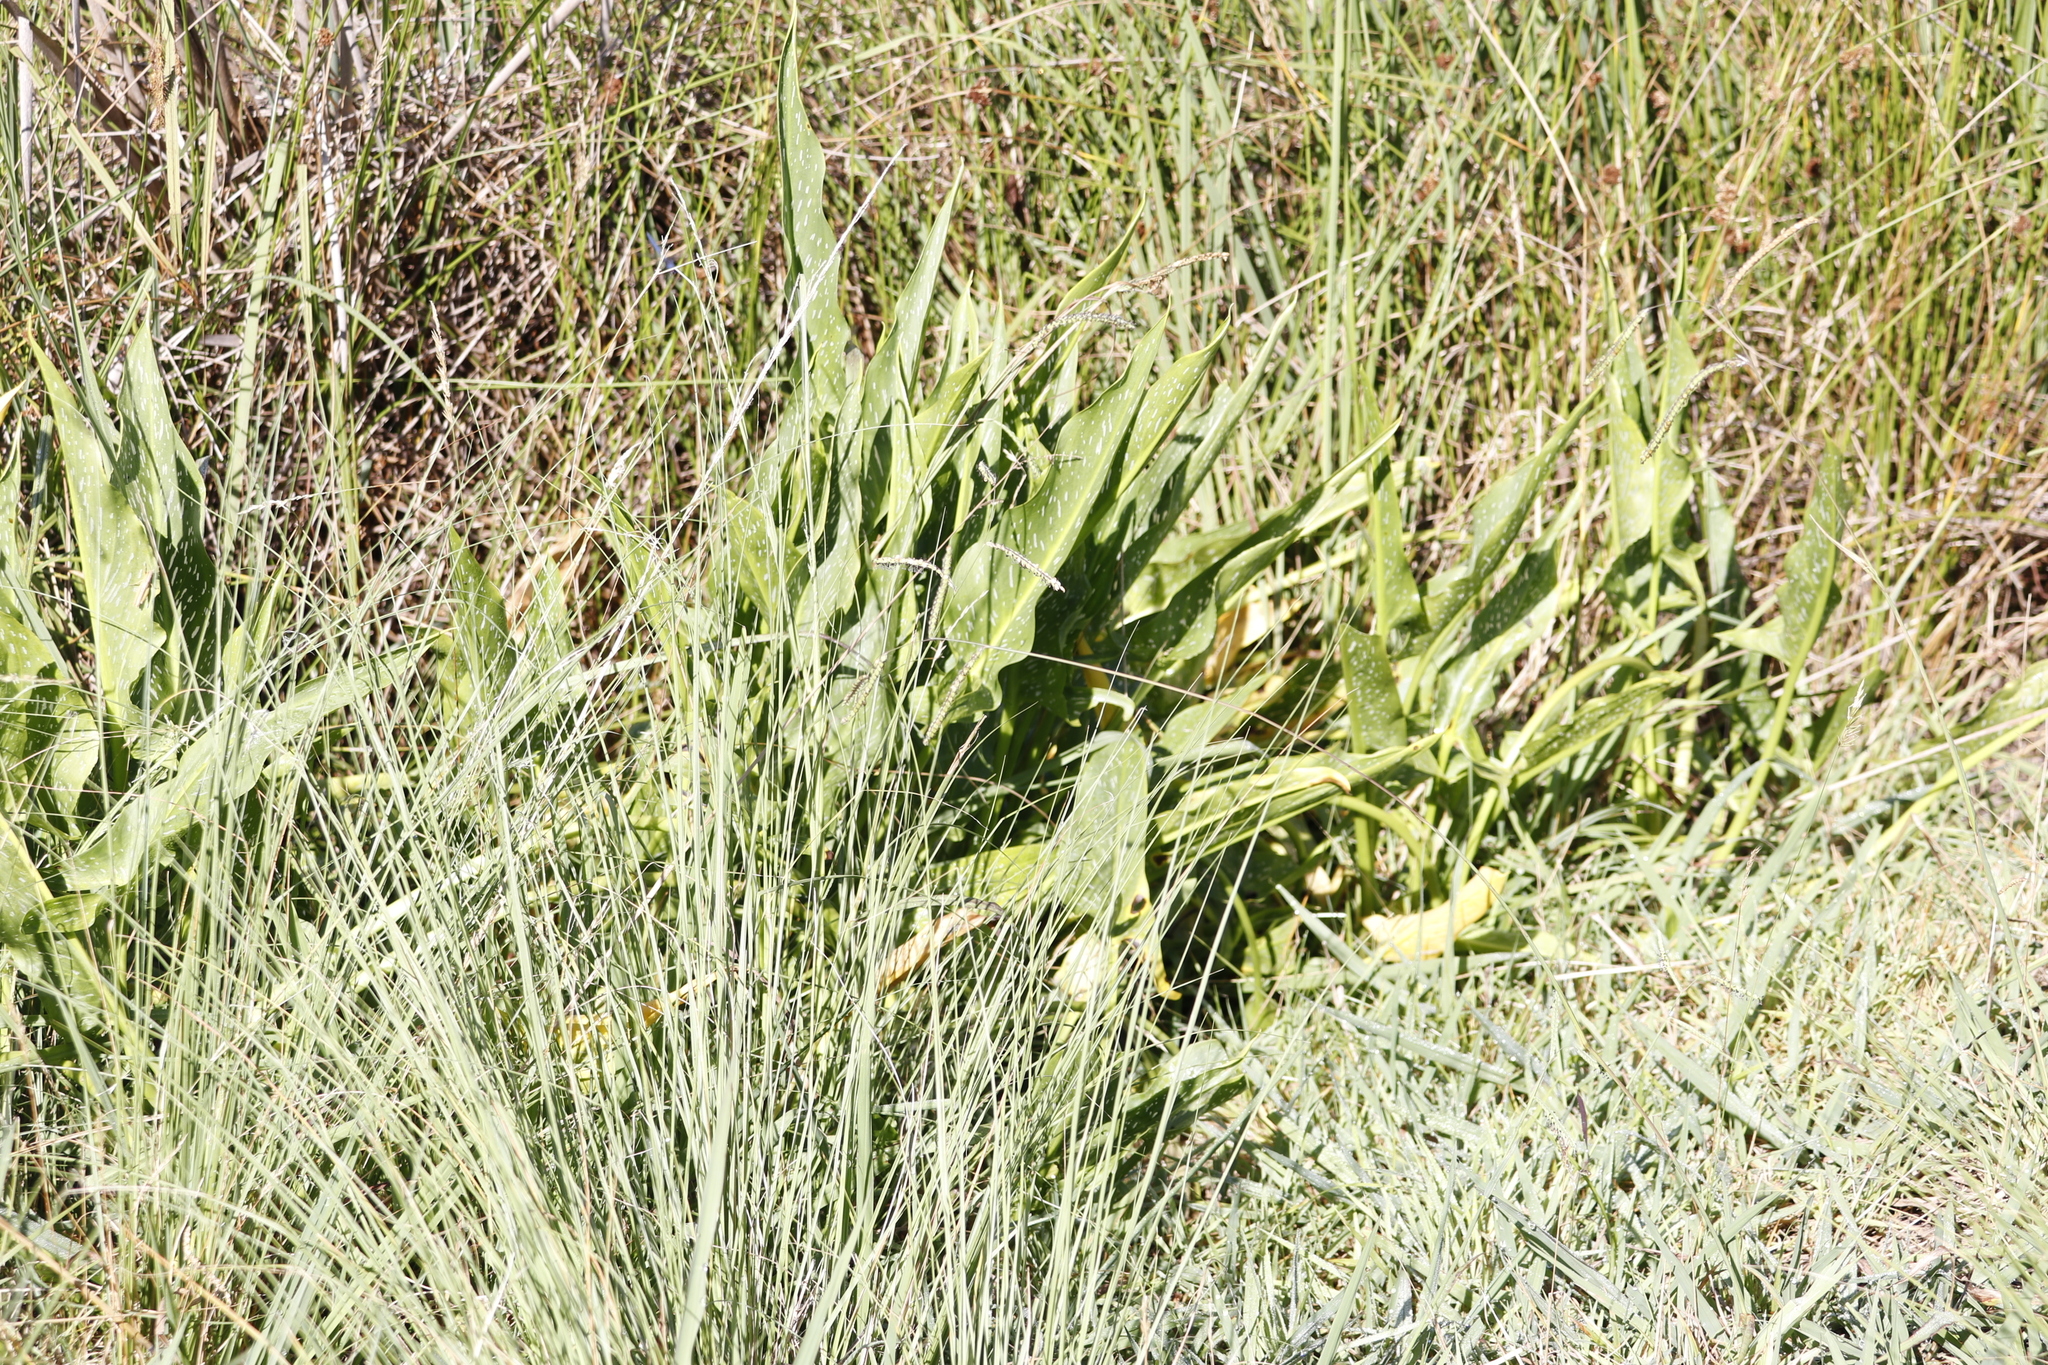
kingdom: Plantae
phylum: Tracheophyta
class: Liliopsida
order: Alismatales
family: Araceae
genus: Zantedeschia
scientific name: Zantedeschia albomaculata
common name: Spotted calla lily
